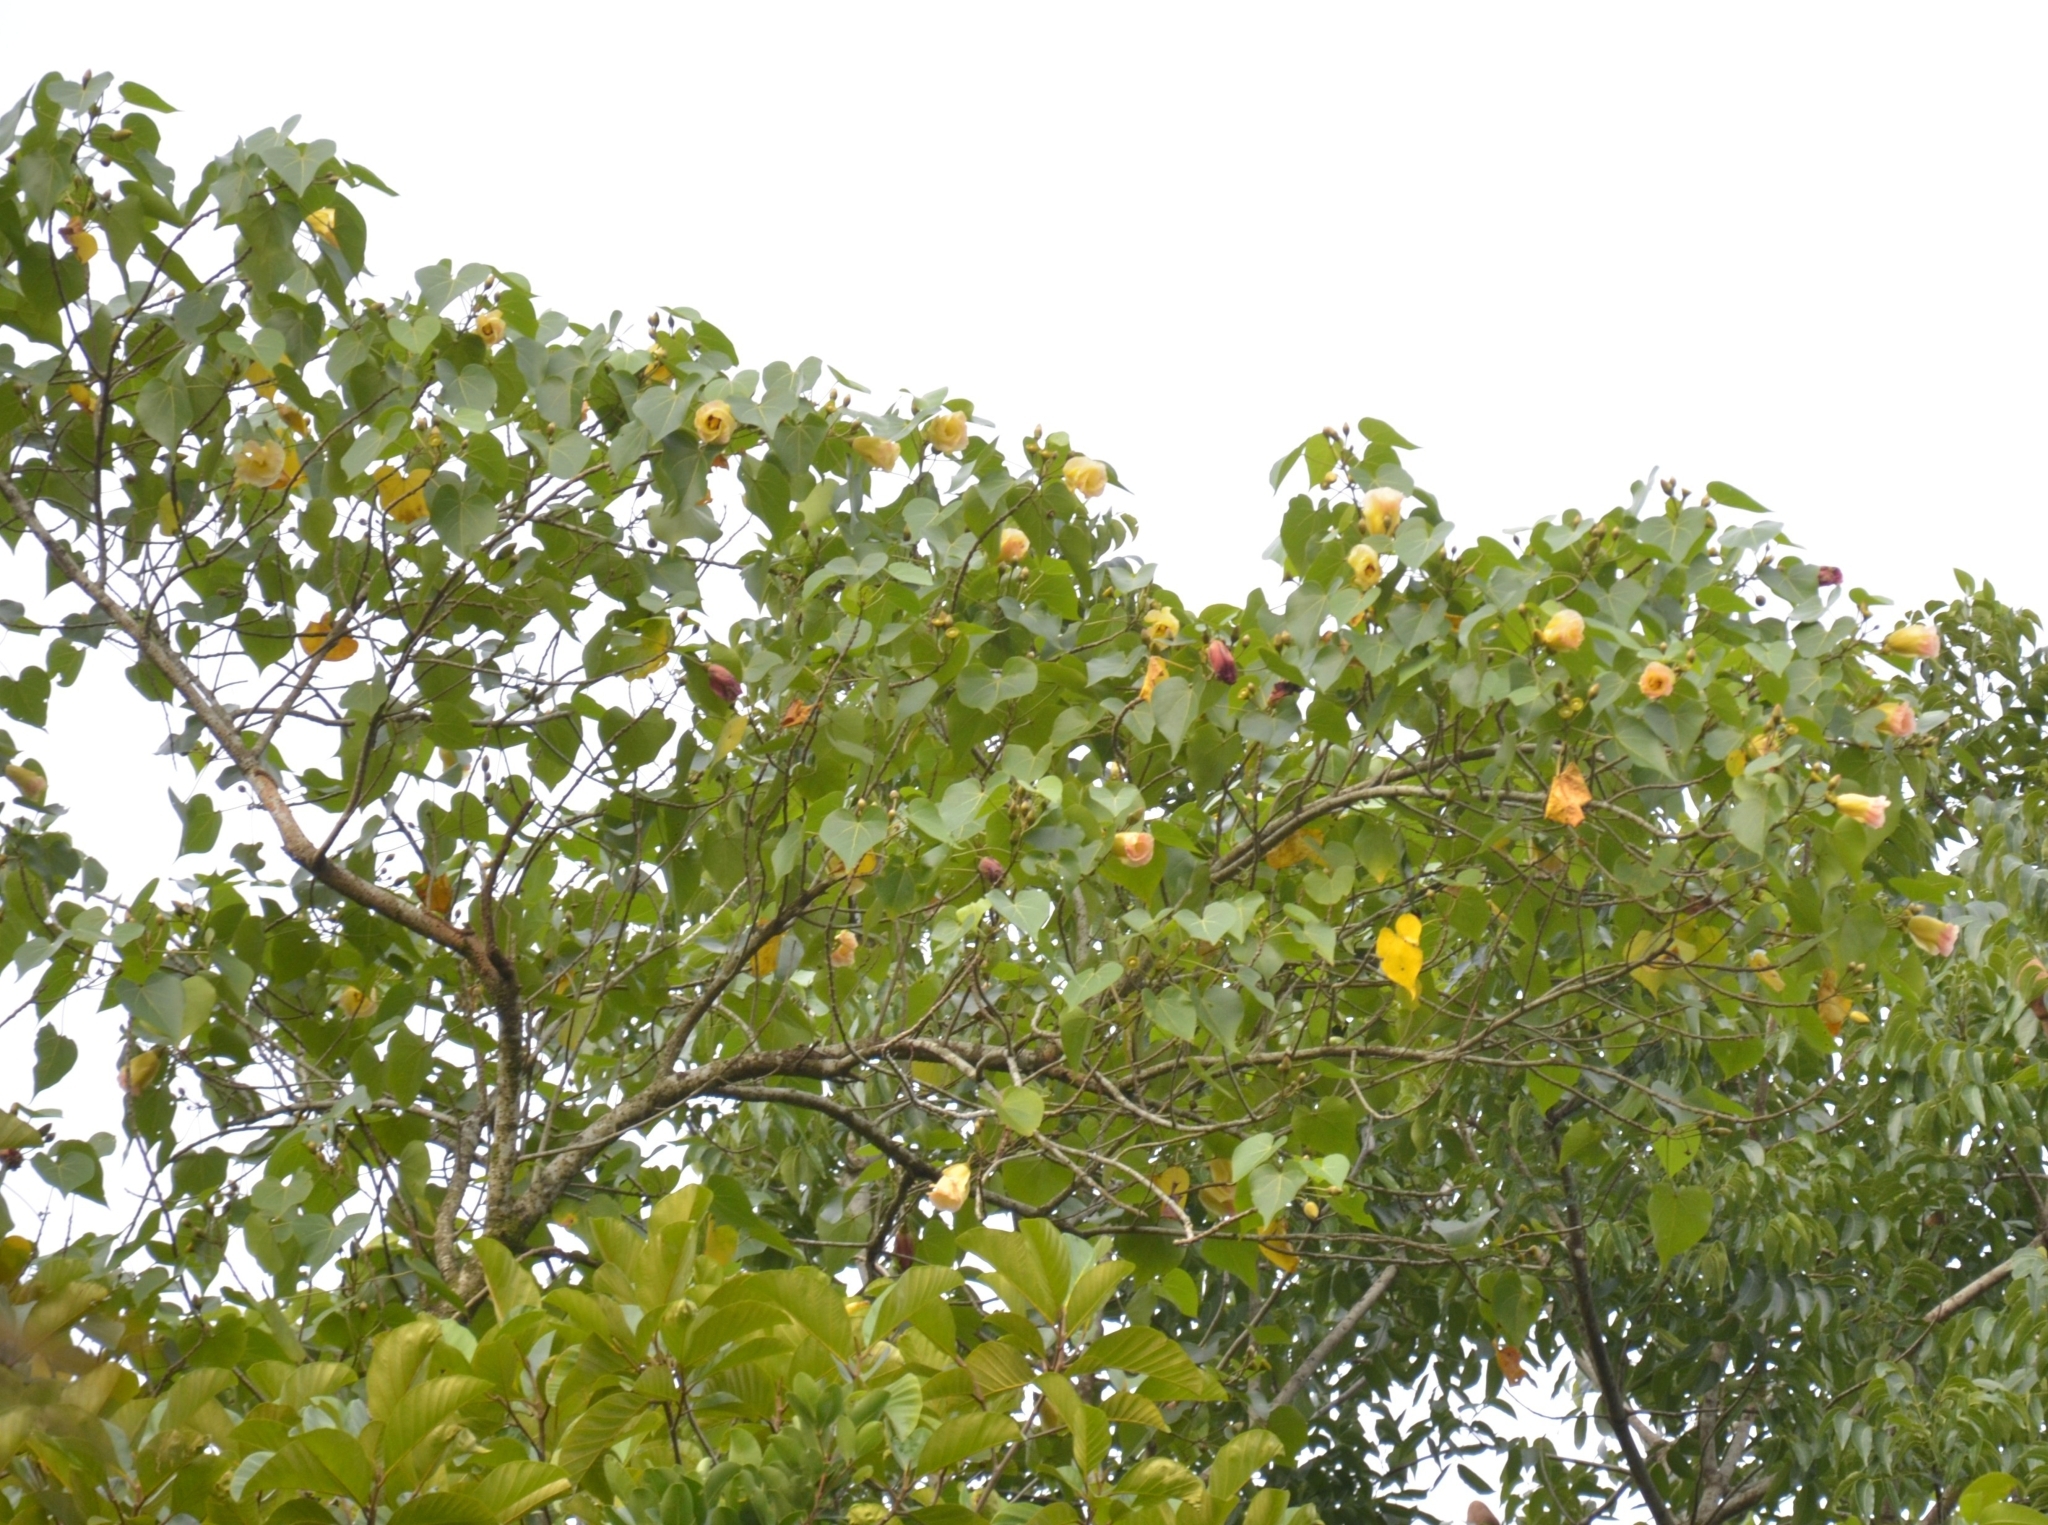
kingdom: Plantae
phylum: Tracheophyta
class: Magnoliopsida
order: Malvales
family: Malvaceae
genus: Thespesia
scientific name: Thespesia populnea
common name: Seaside mahoe
